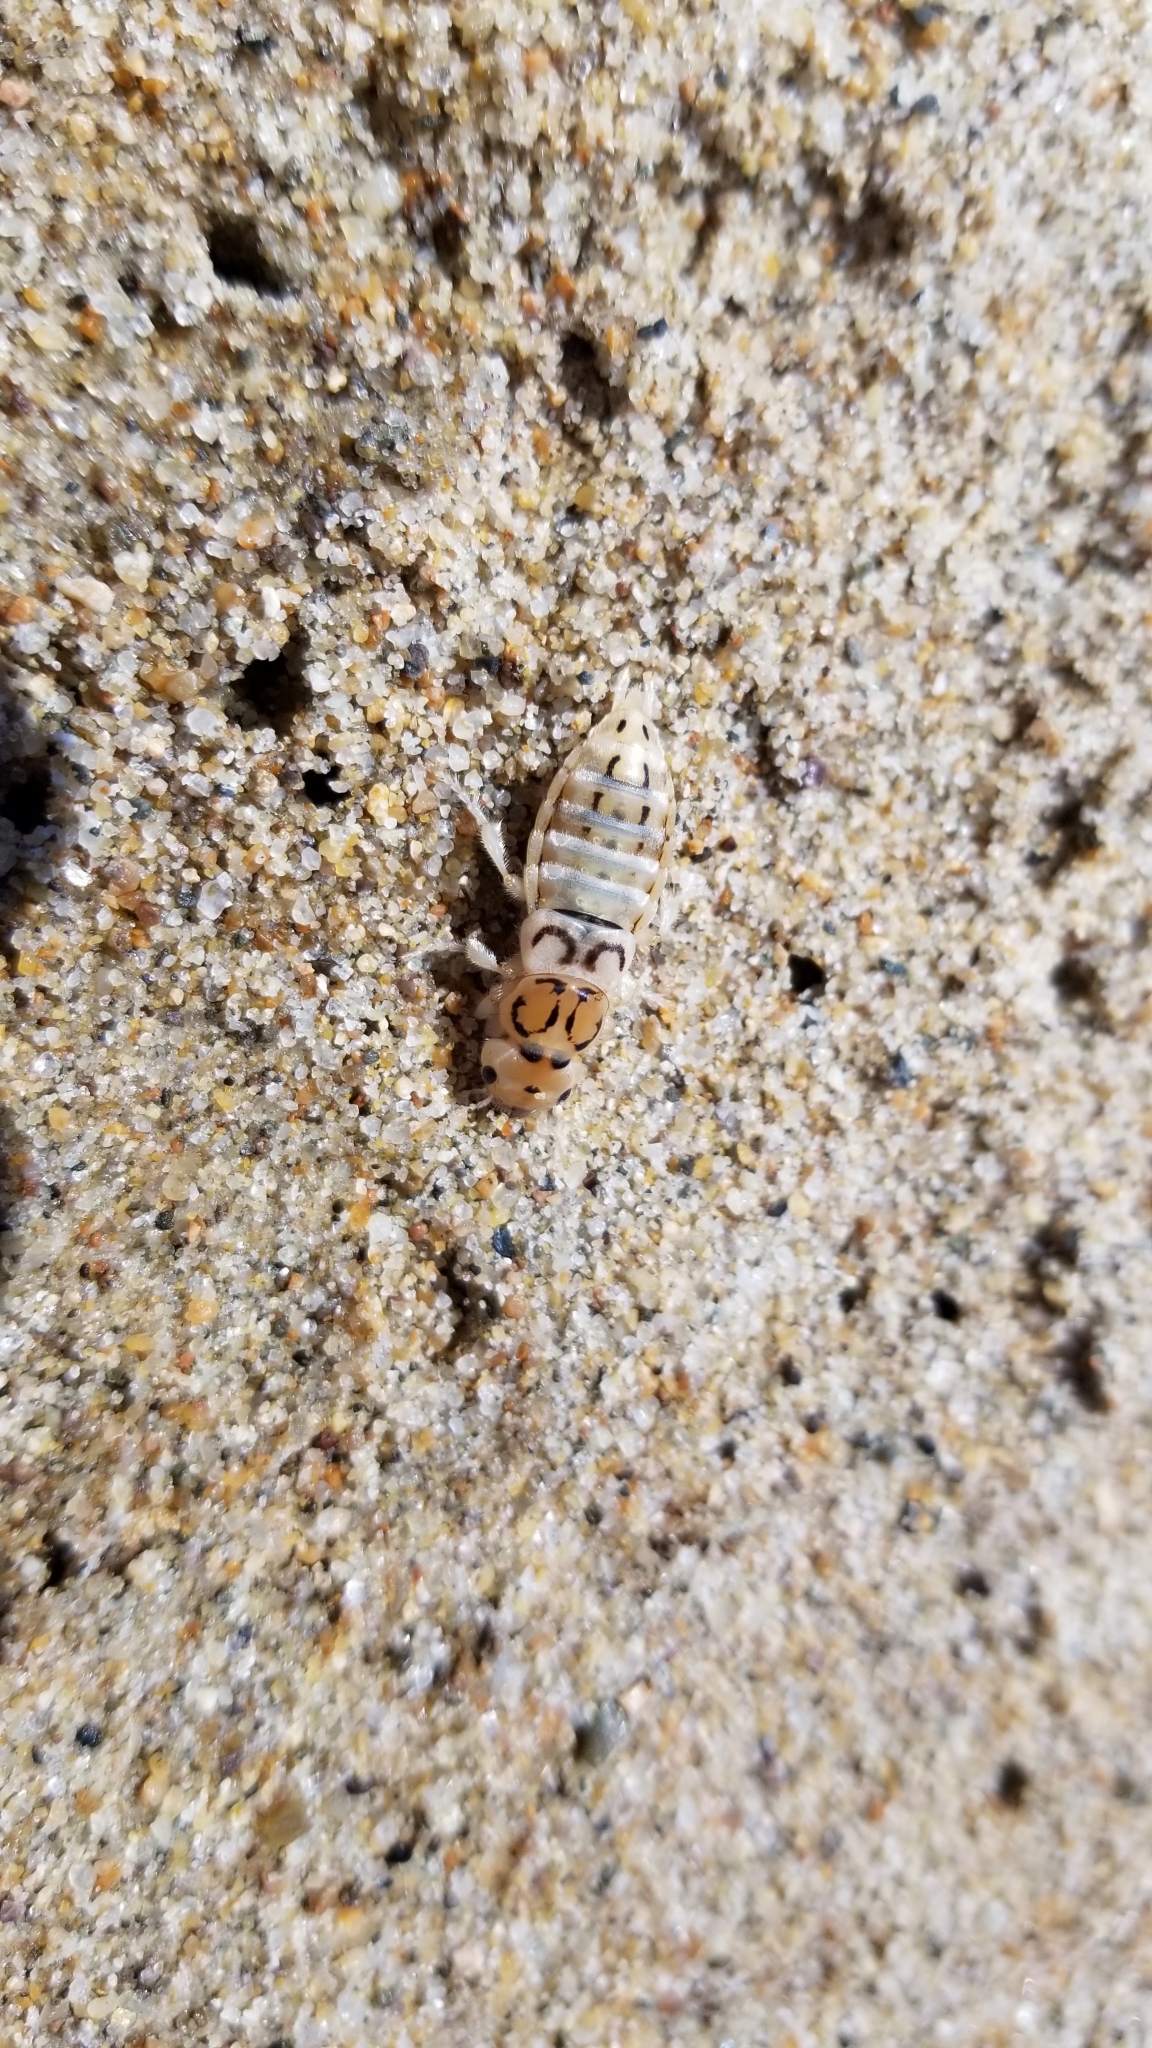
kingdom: Animalia
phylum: Arthropoda
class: Insecta
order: Coleoptera
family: Staphylinidae
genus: Thinopinus
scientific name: Thinopinus pictus
